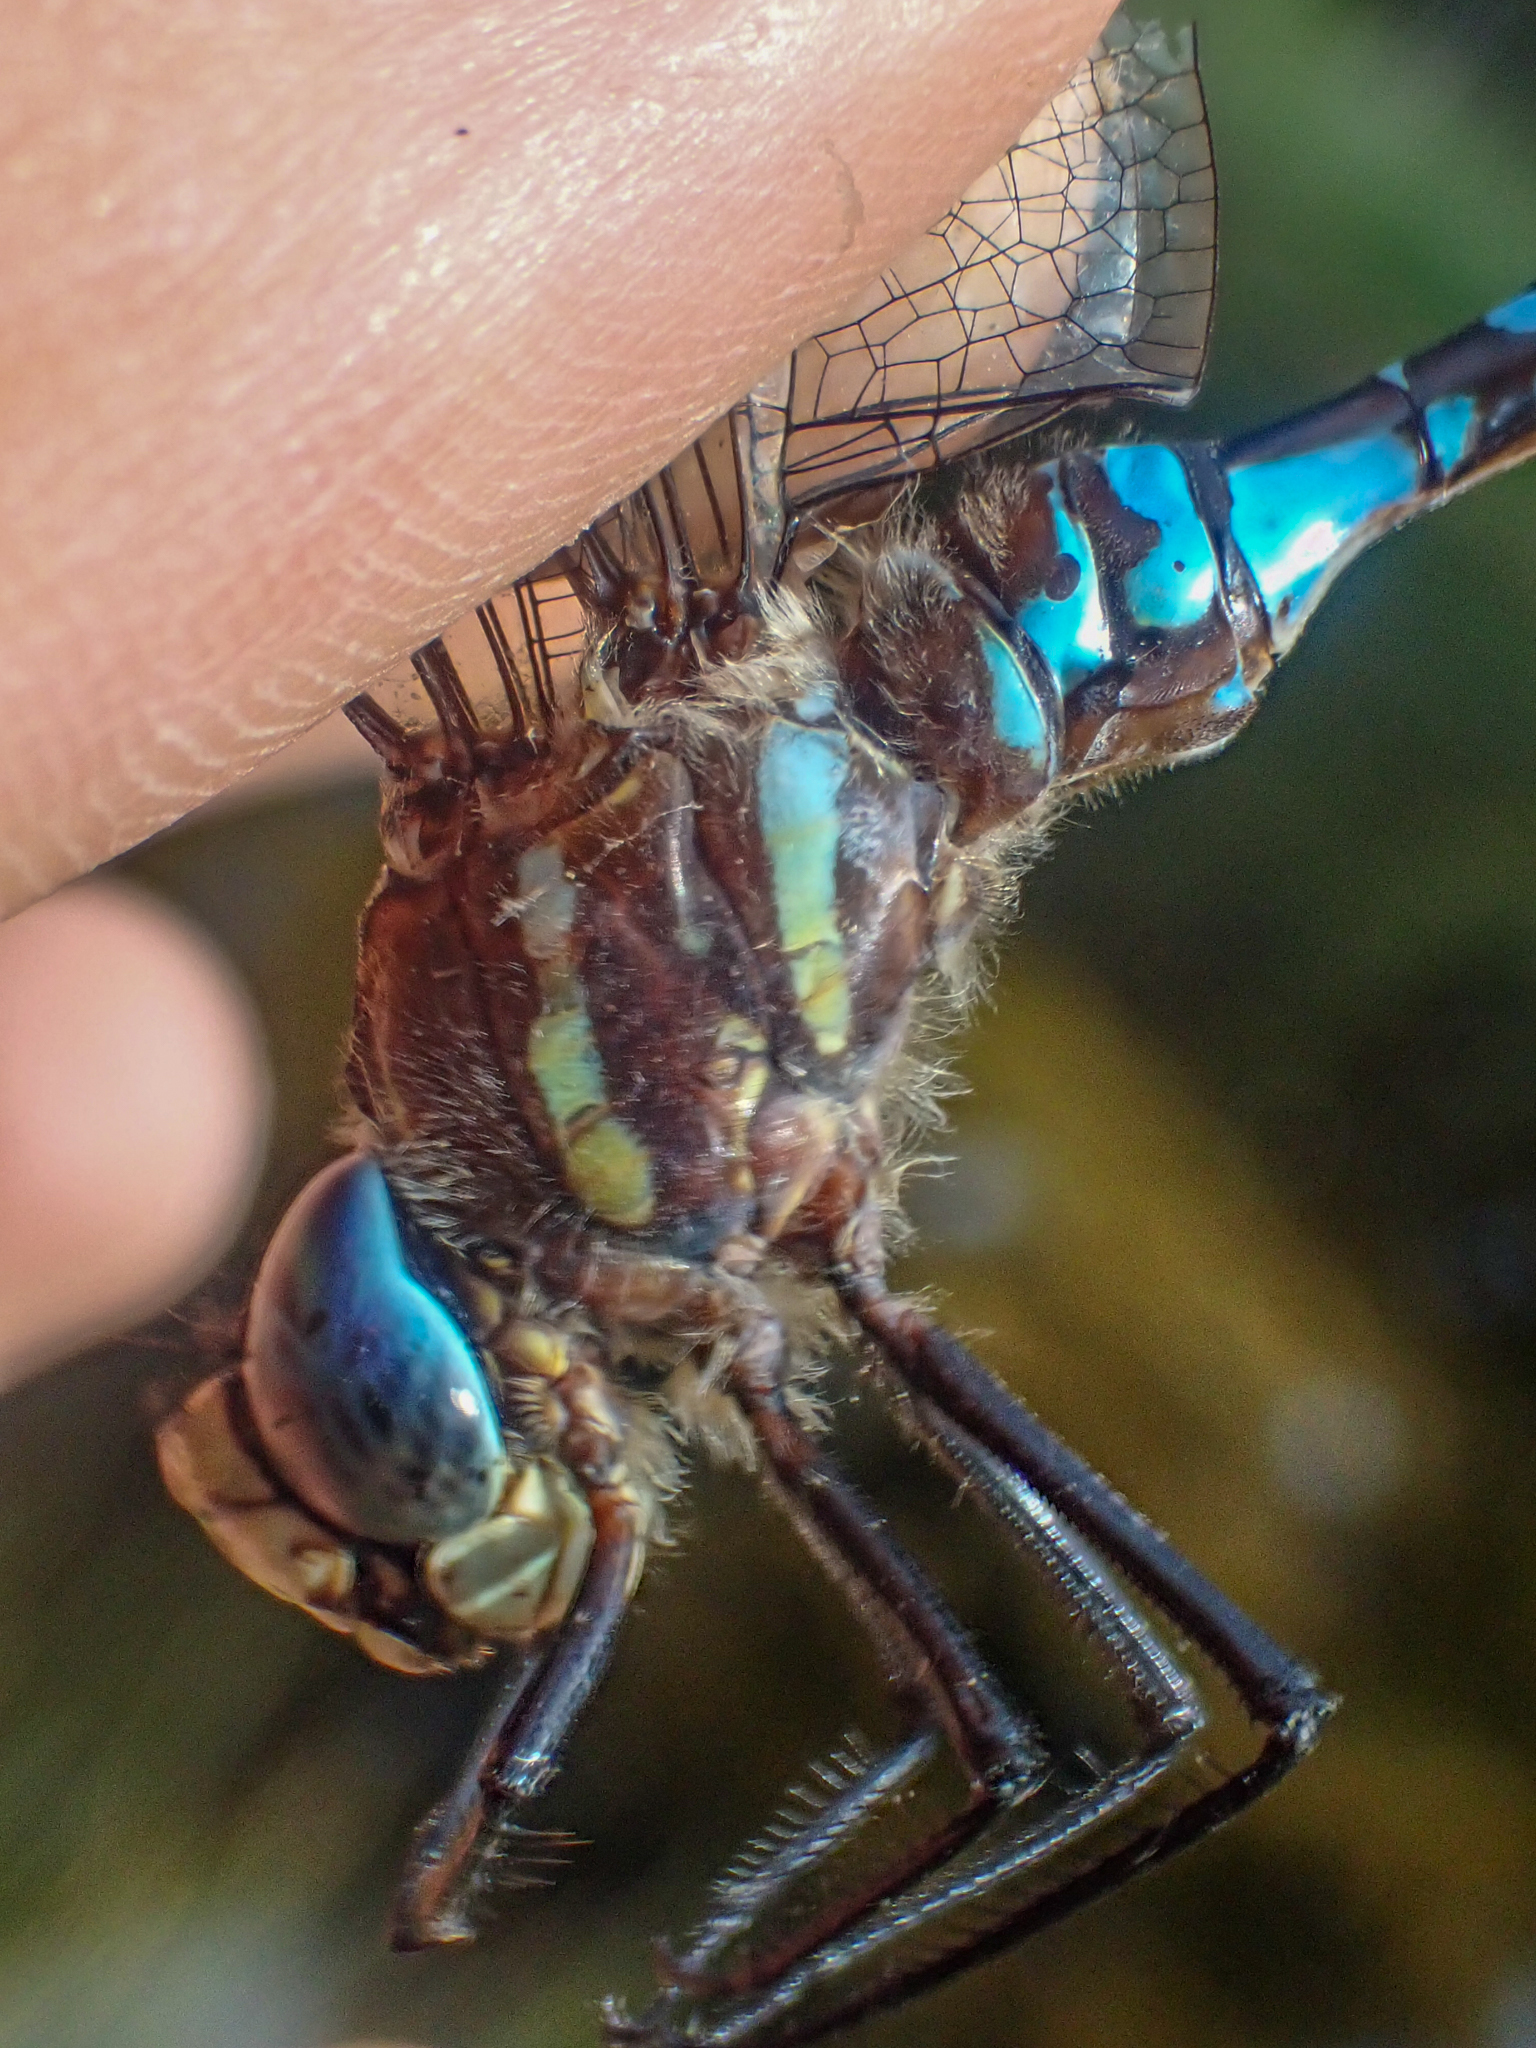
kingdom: Animalia
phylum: Arthropoda
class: Insecta
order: Odonata
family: Aeshnidae
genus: Aeshna
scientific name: Aeshna palmata
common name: Paddle-tailed darner
